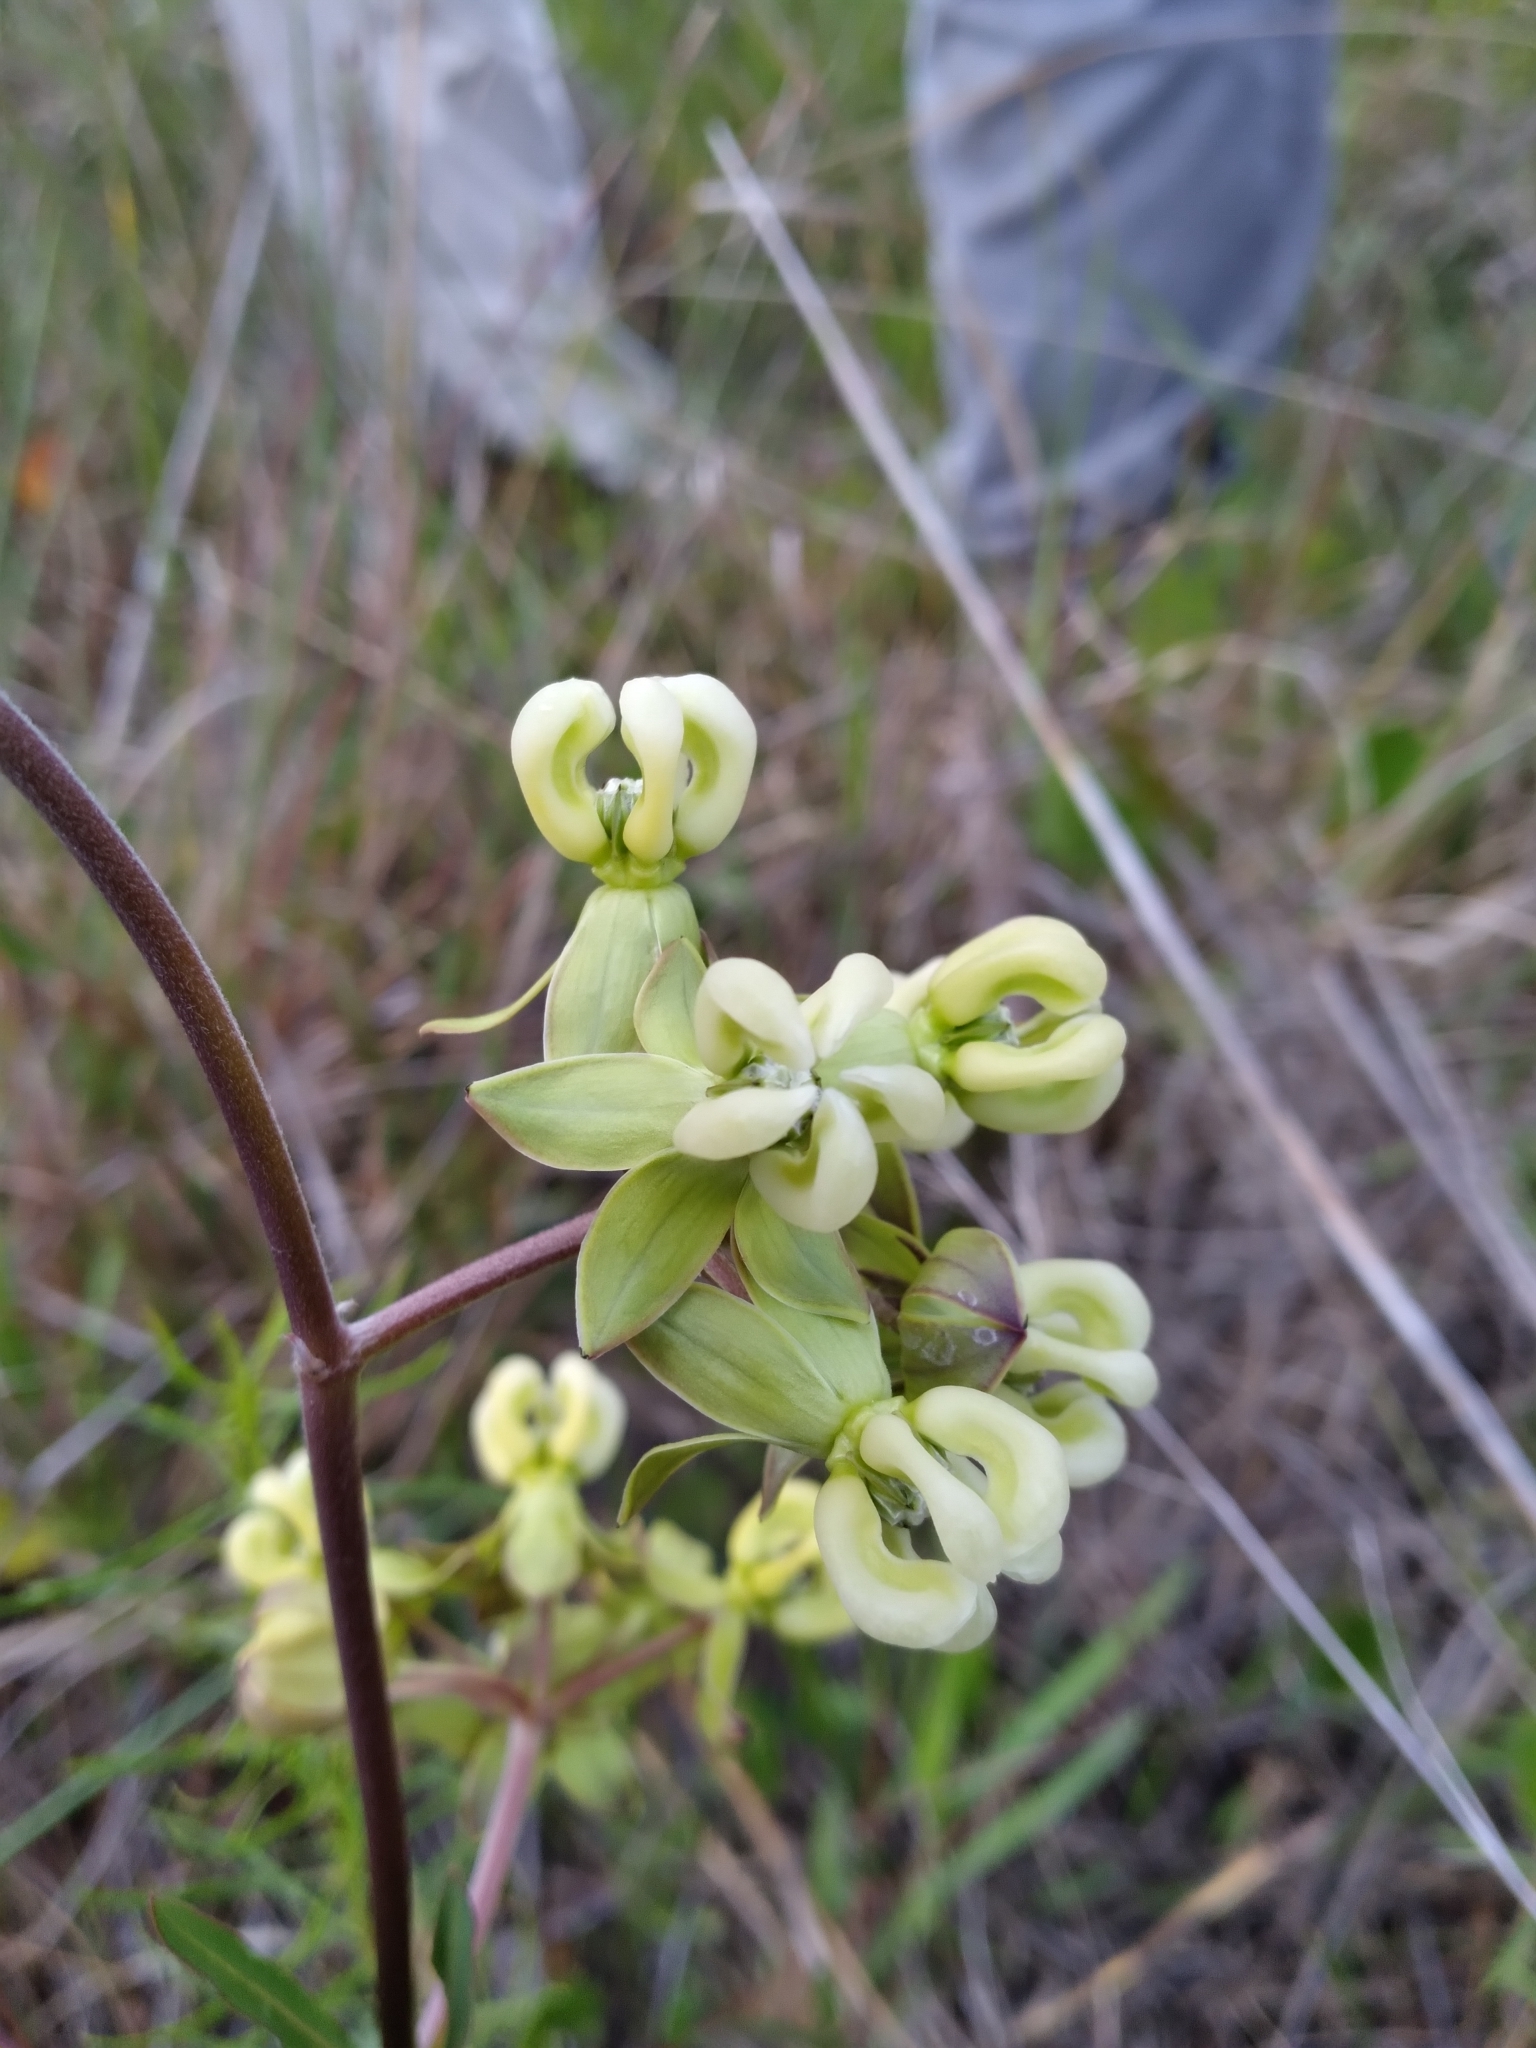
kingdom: Plantae
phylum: Tracheophyta
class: Magnoliopsida
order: Gentianales
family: Apocynaceae
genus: Asclepias
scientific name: Asclepias connivens
